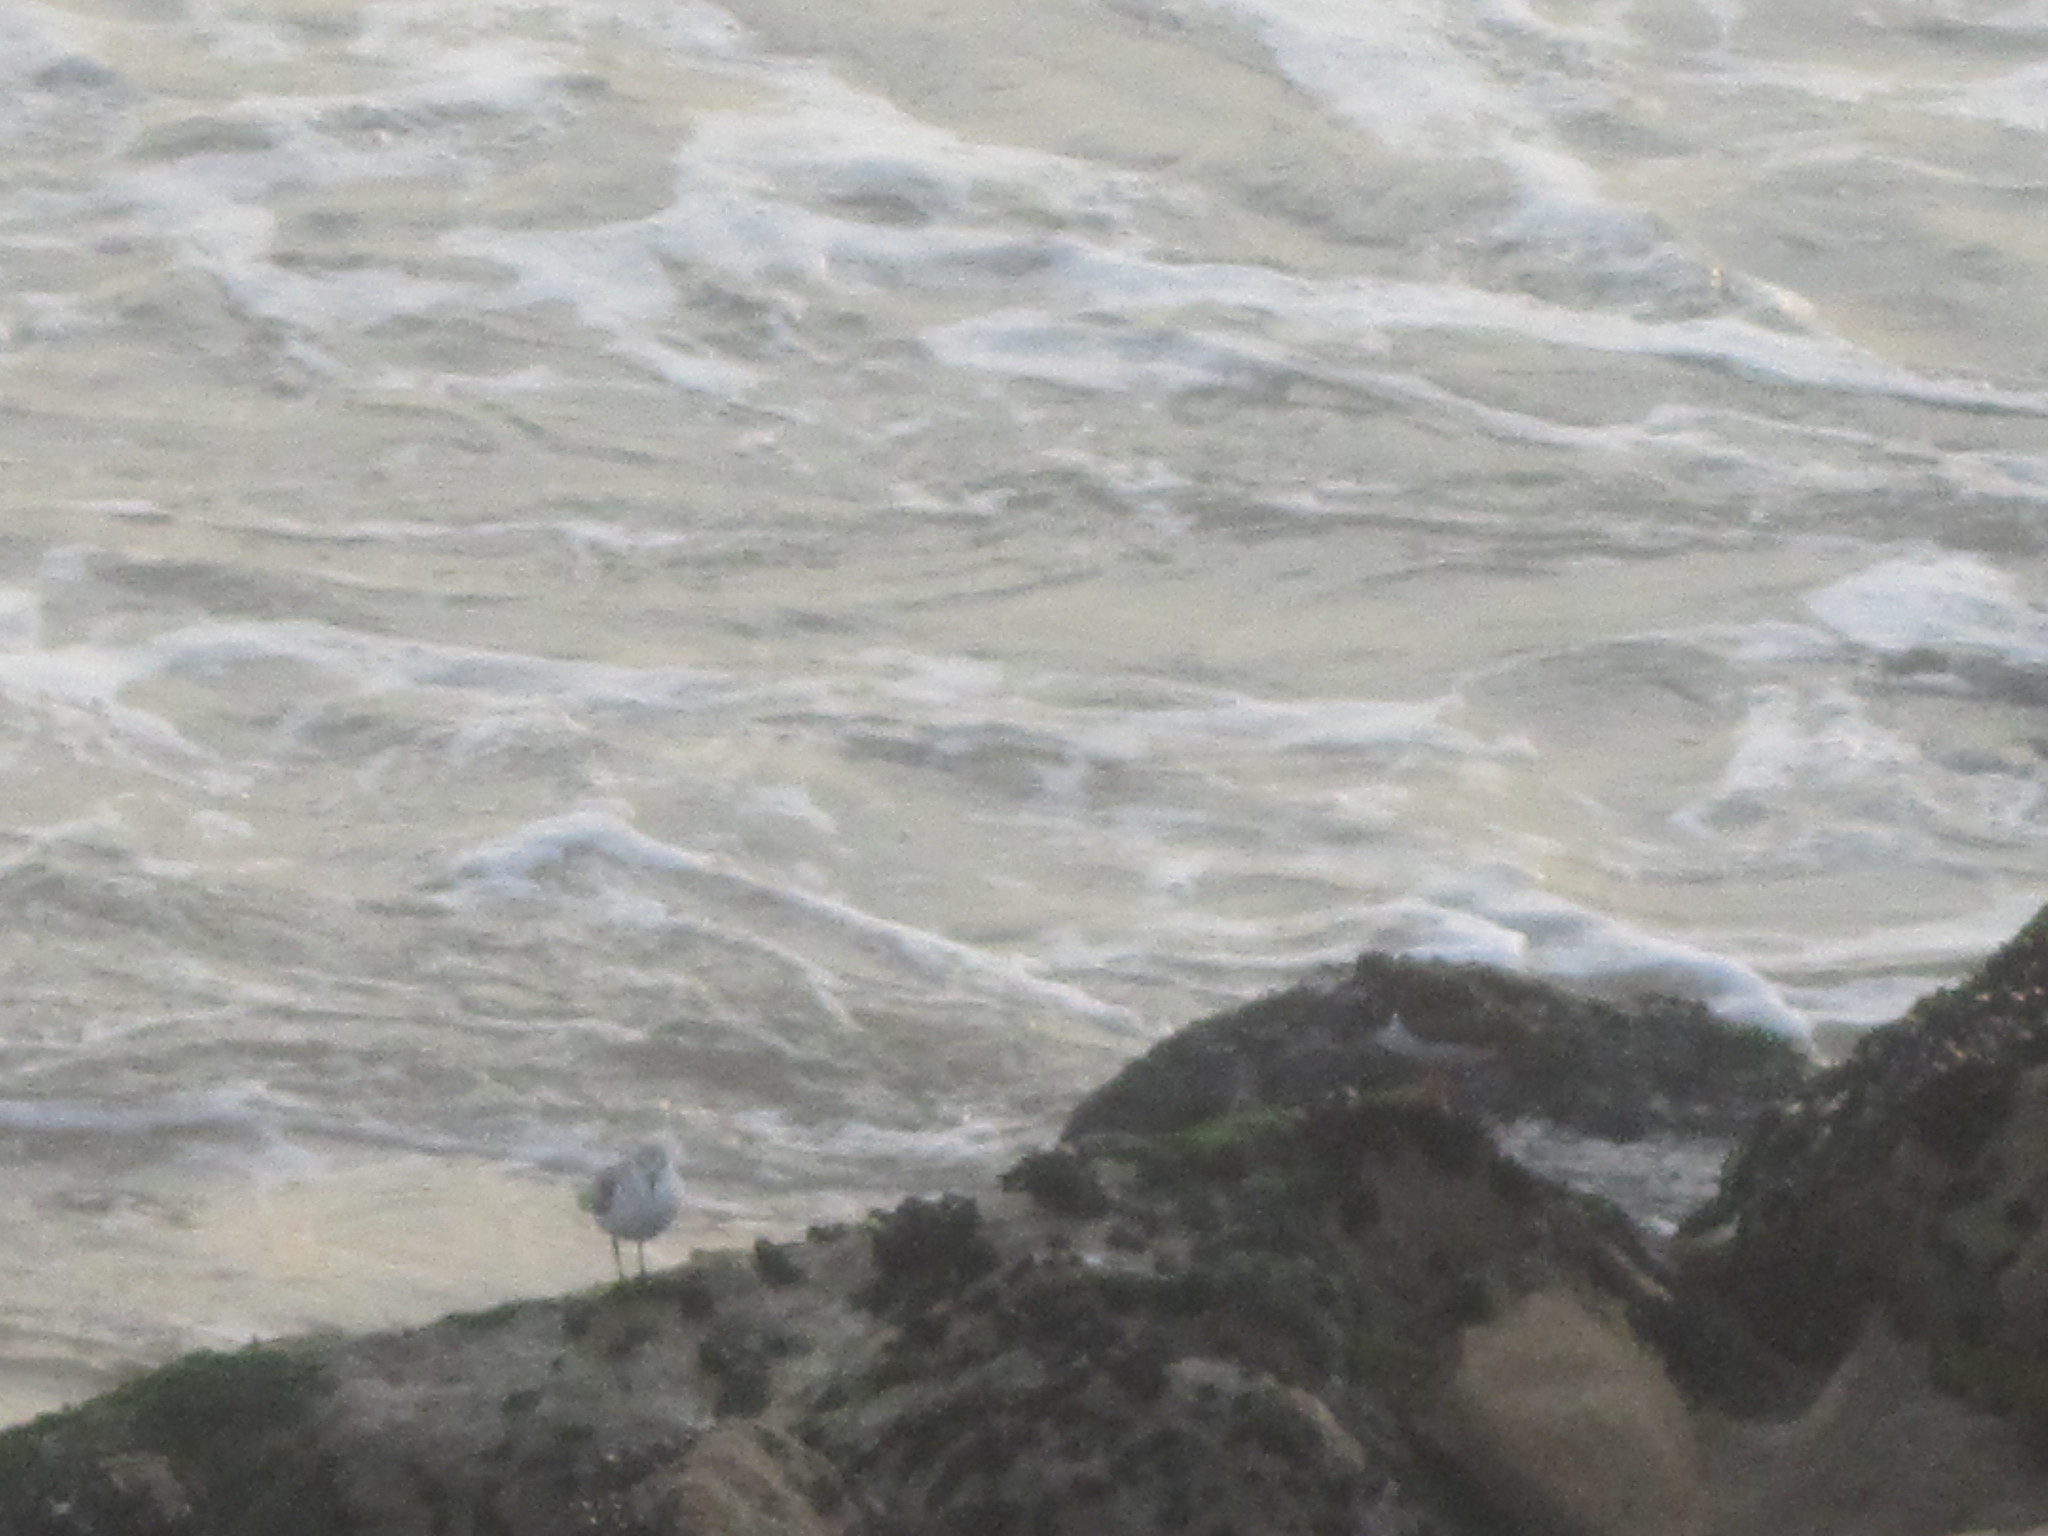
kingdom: Animalia
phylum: Chordata
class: Aves
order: Charadriiformes
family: Scolopacidae
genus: Calidris
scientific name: Calidris alba
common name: Sanderling
